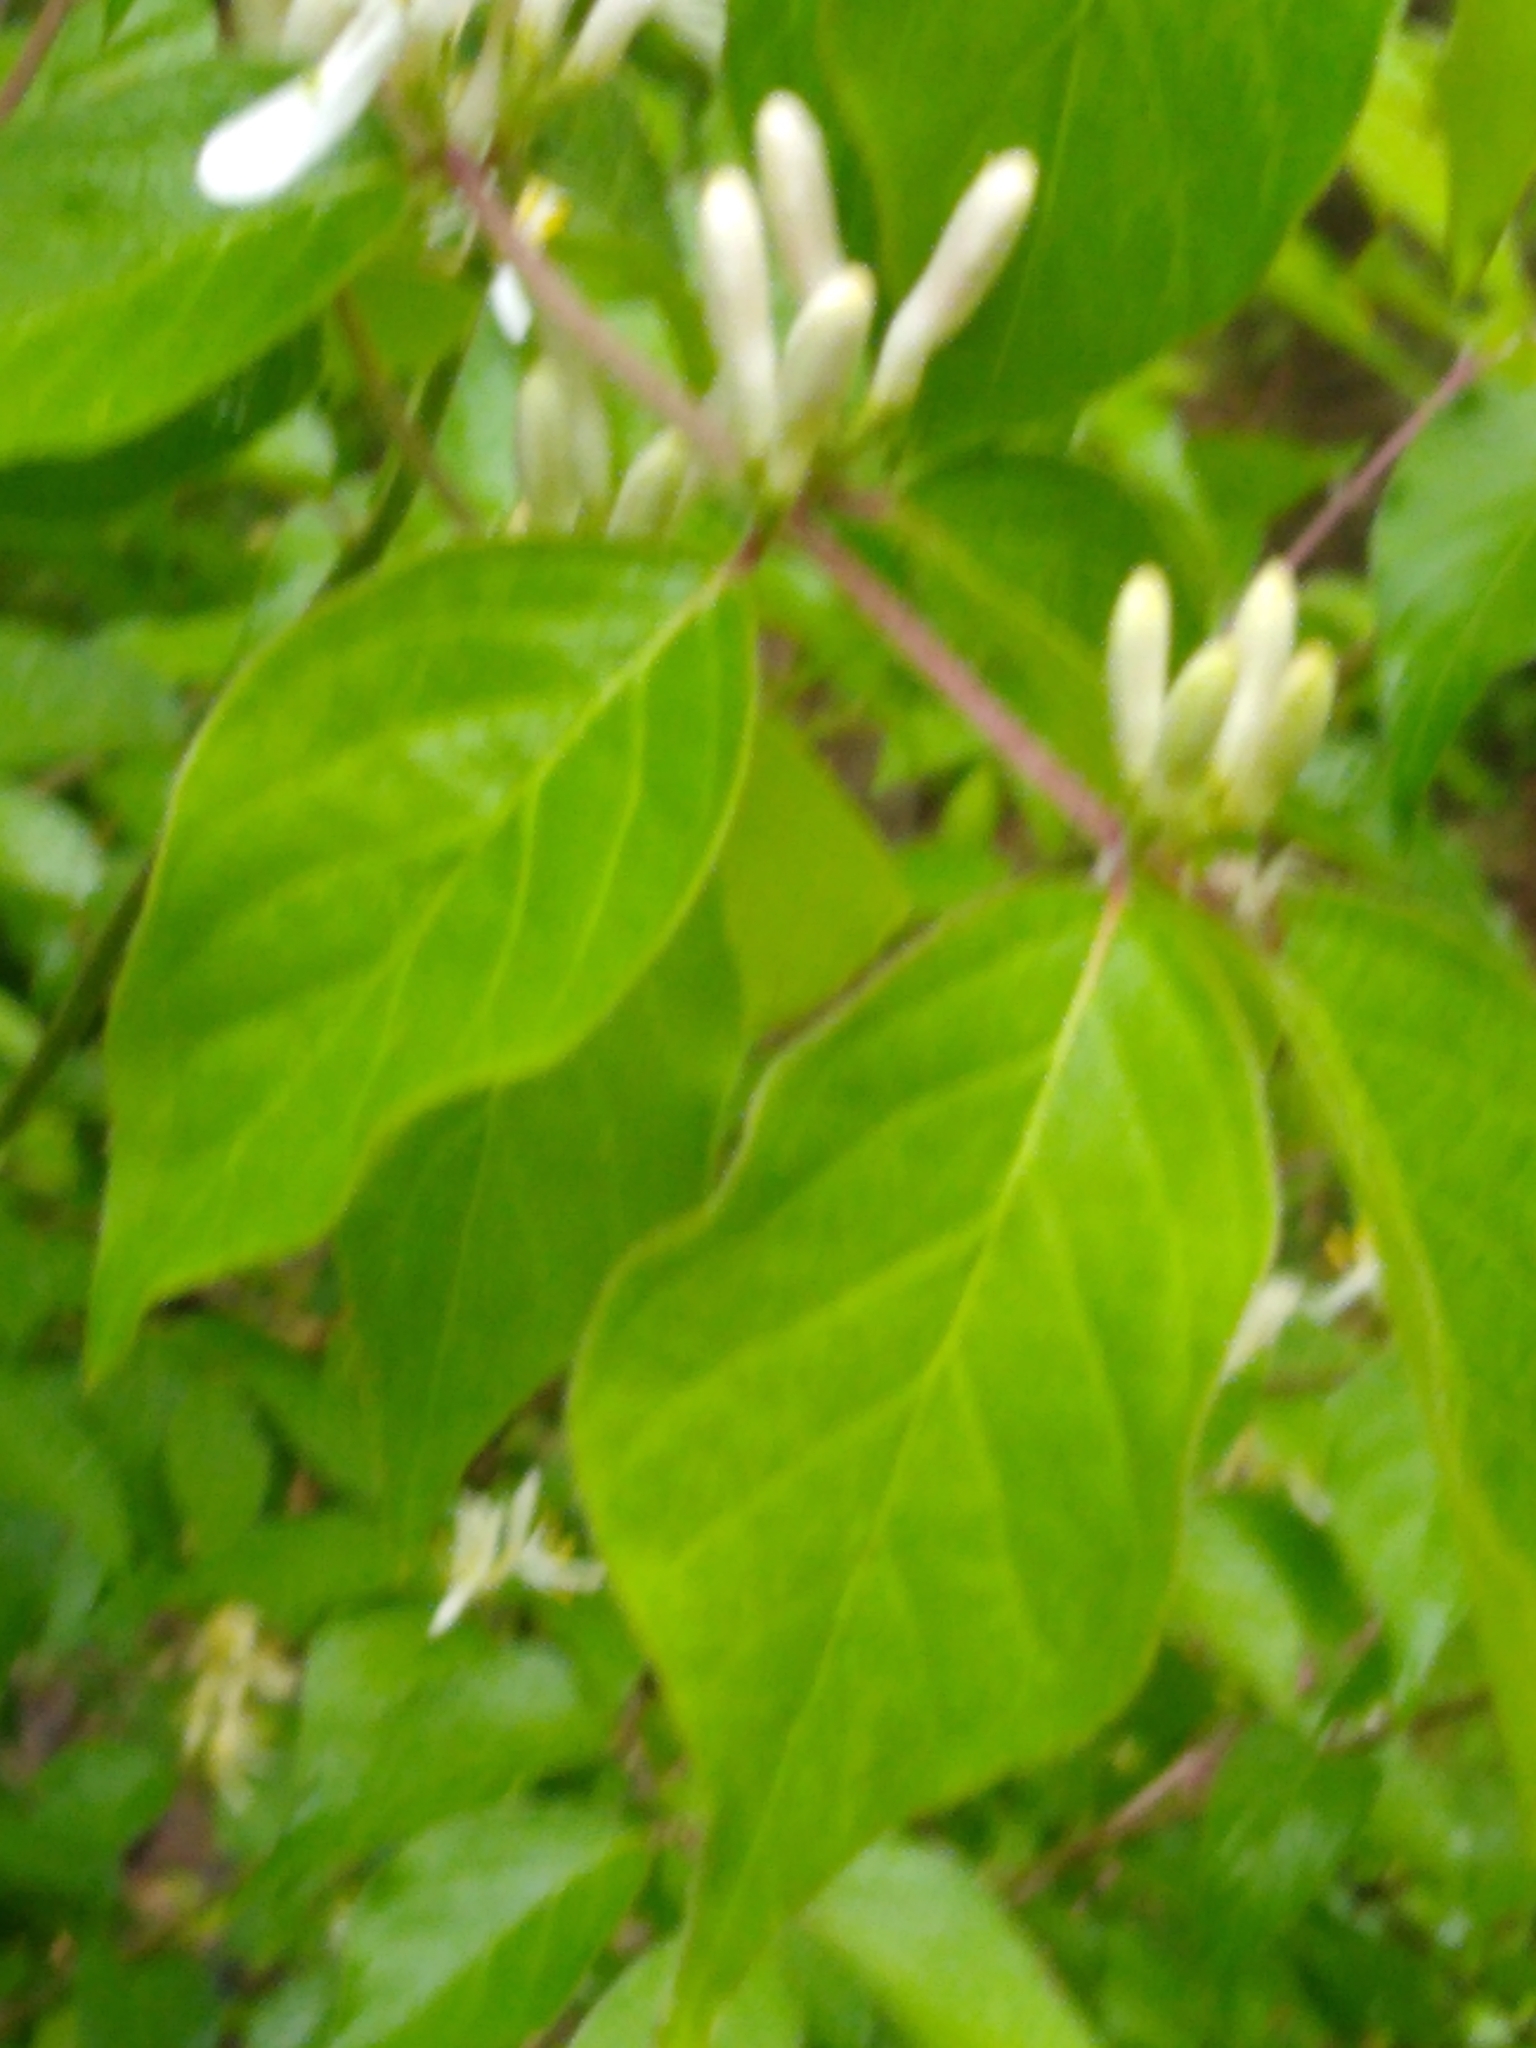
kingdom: Plantae
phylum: Tracheophyta
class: Magnoliopsida
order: Dipsacales
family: Caprifoliaceae
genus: Lonicera
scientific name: Lonicera maackii
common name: Amur honeysuckle
